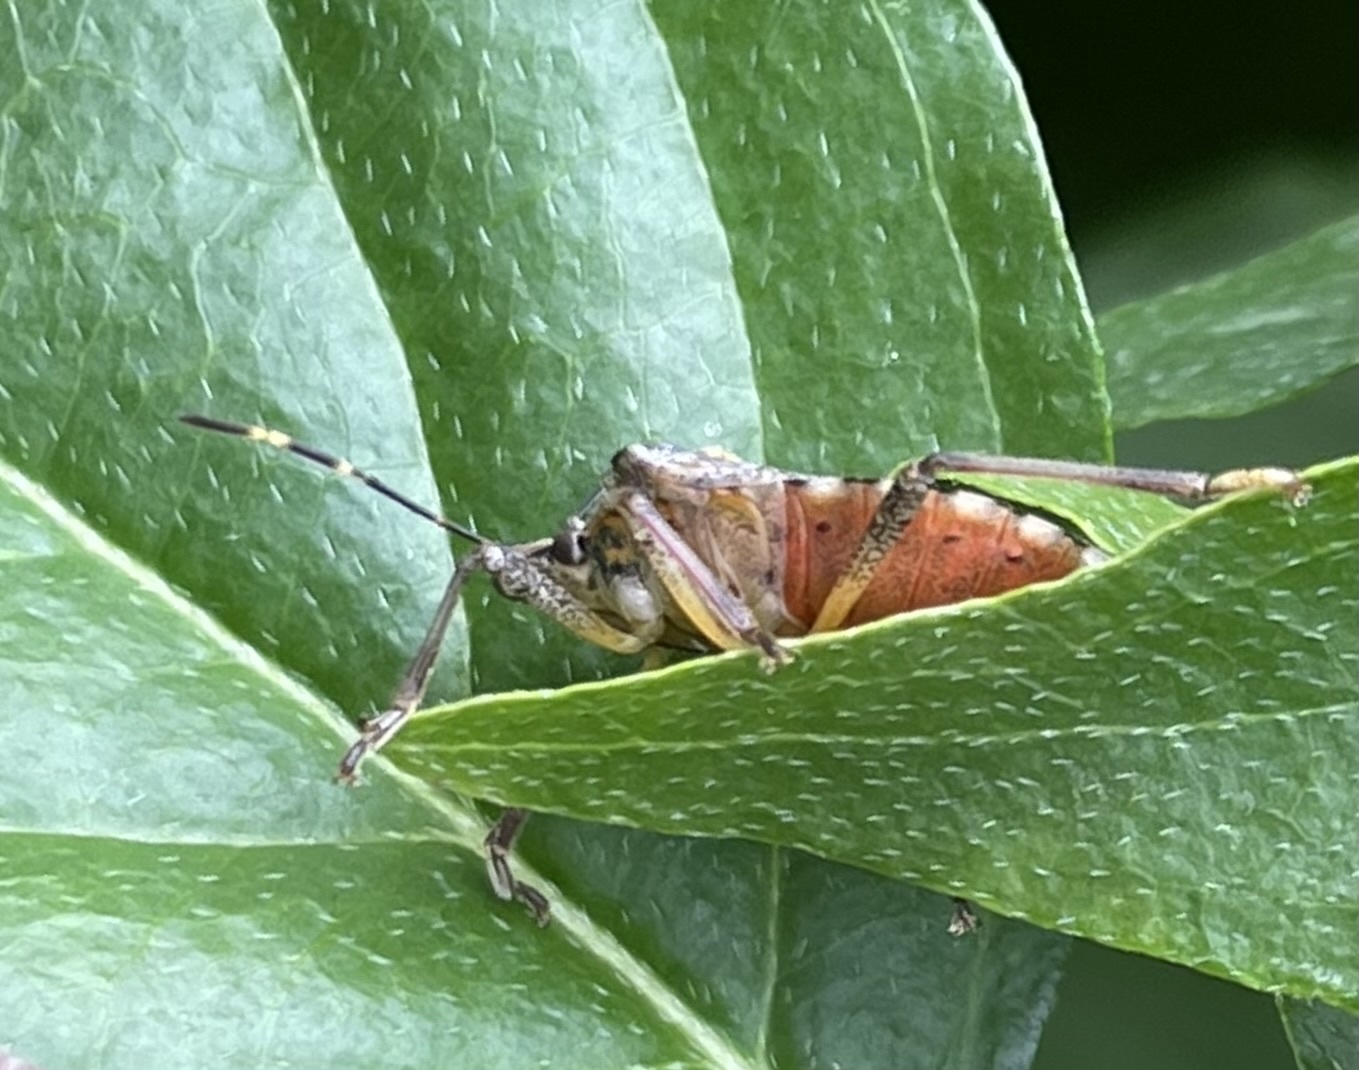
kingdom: Animalia
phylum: Arthropoda
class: Insecta
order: Hemiptera
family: Pentatomidae
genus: Halyomorpha
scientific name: Halyomorpha halys
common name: Brown marmorated stink bug
